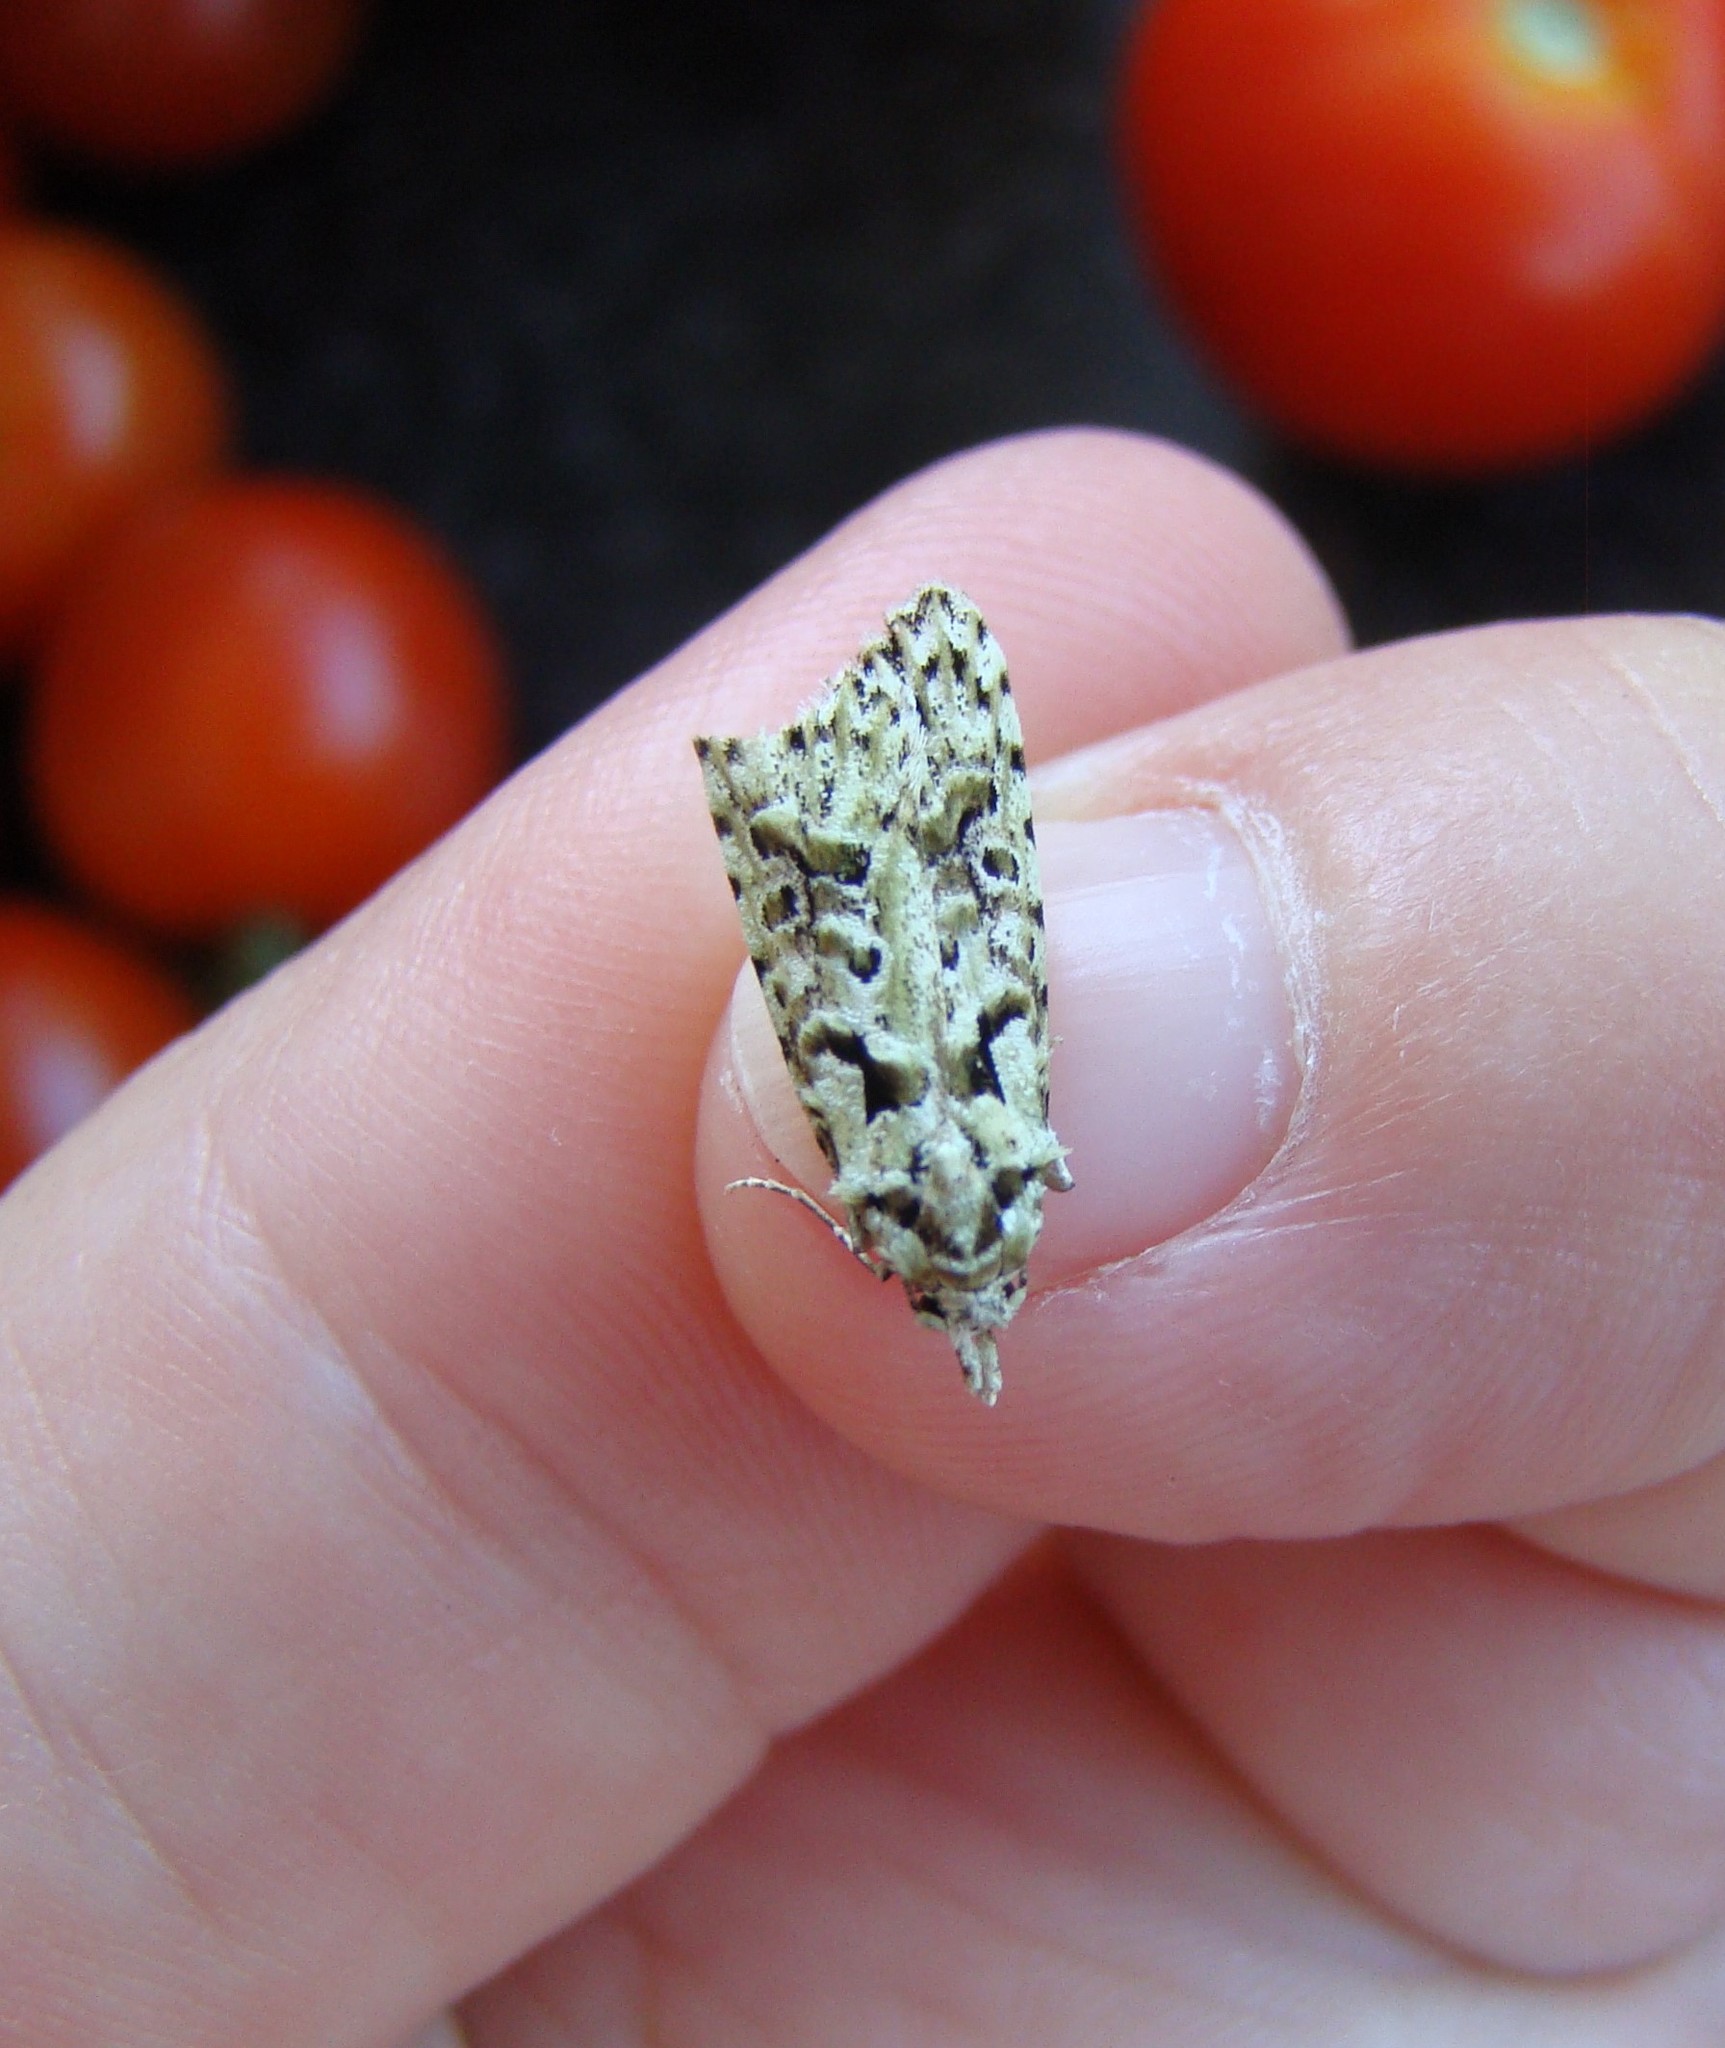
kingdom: Animalia
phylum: Arthropoda
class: Insecta
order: Lepidoptera
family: Carposinidae
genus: Carposina
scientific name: Carposina Heterocrossa eriphylla
